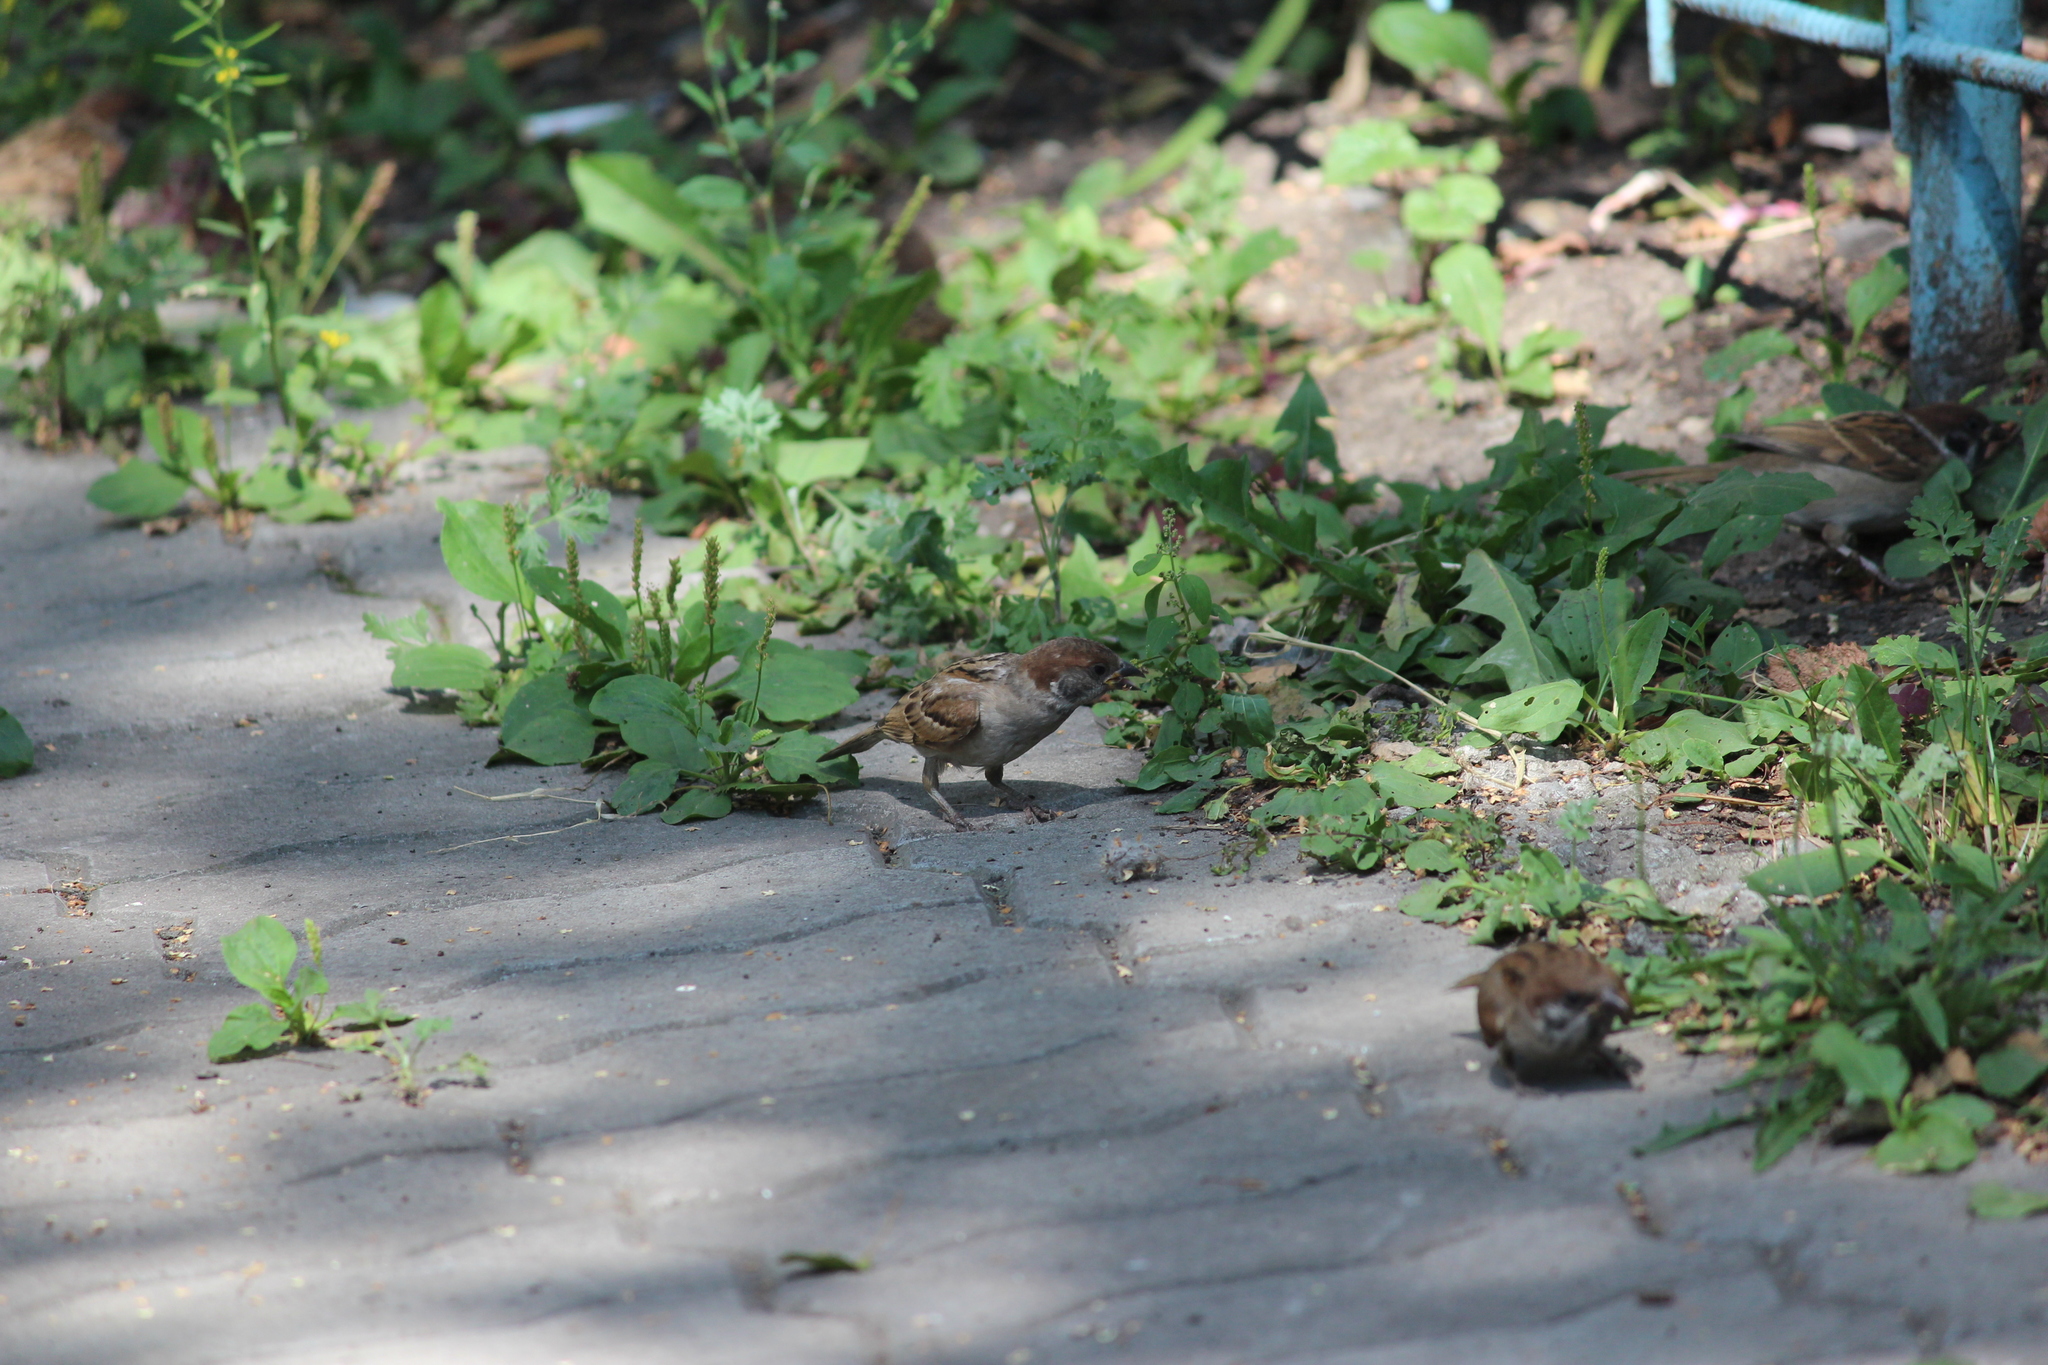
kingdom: Animalia
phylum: Chordata
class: Aves
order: Passeriformes
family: Passeridae
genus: Passer
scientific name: Passer montanus
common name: Eurasian tree sparrow
